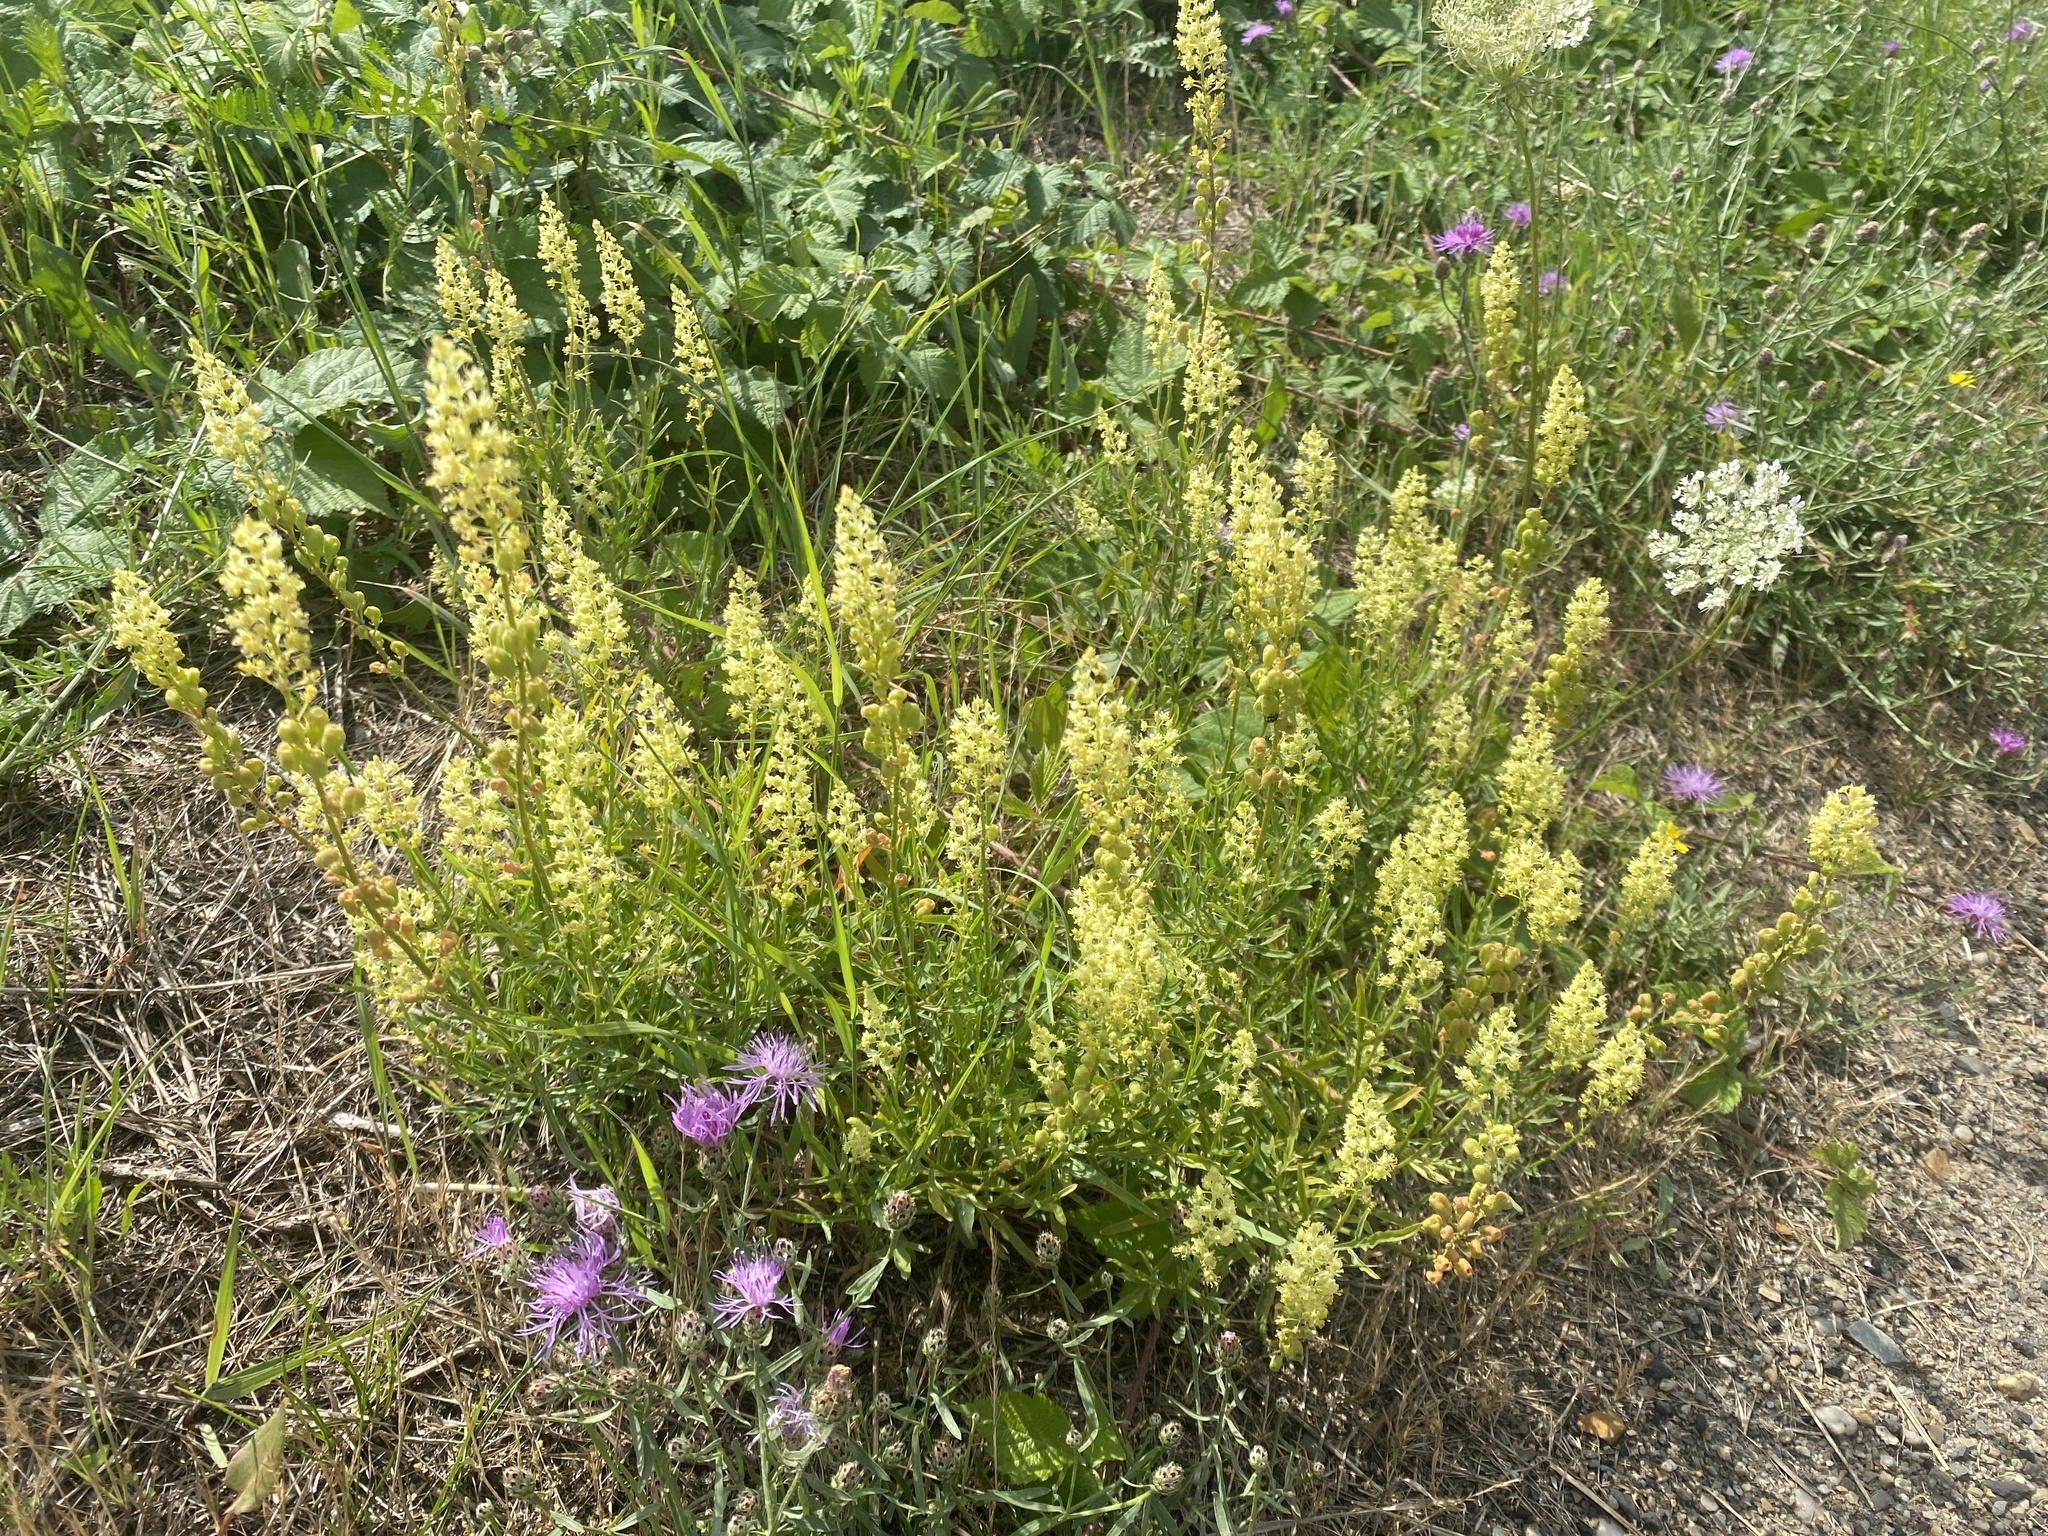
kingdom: Plantae
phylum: Tracheophyta
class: Magnoliopsida
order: Brassicales
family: Resedaceae
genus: Reseda
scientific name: Reseda lutea
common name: Wild mignonette
